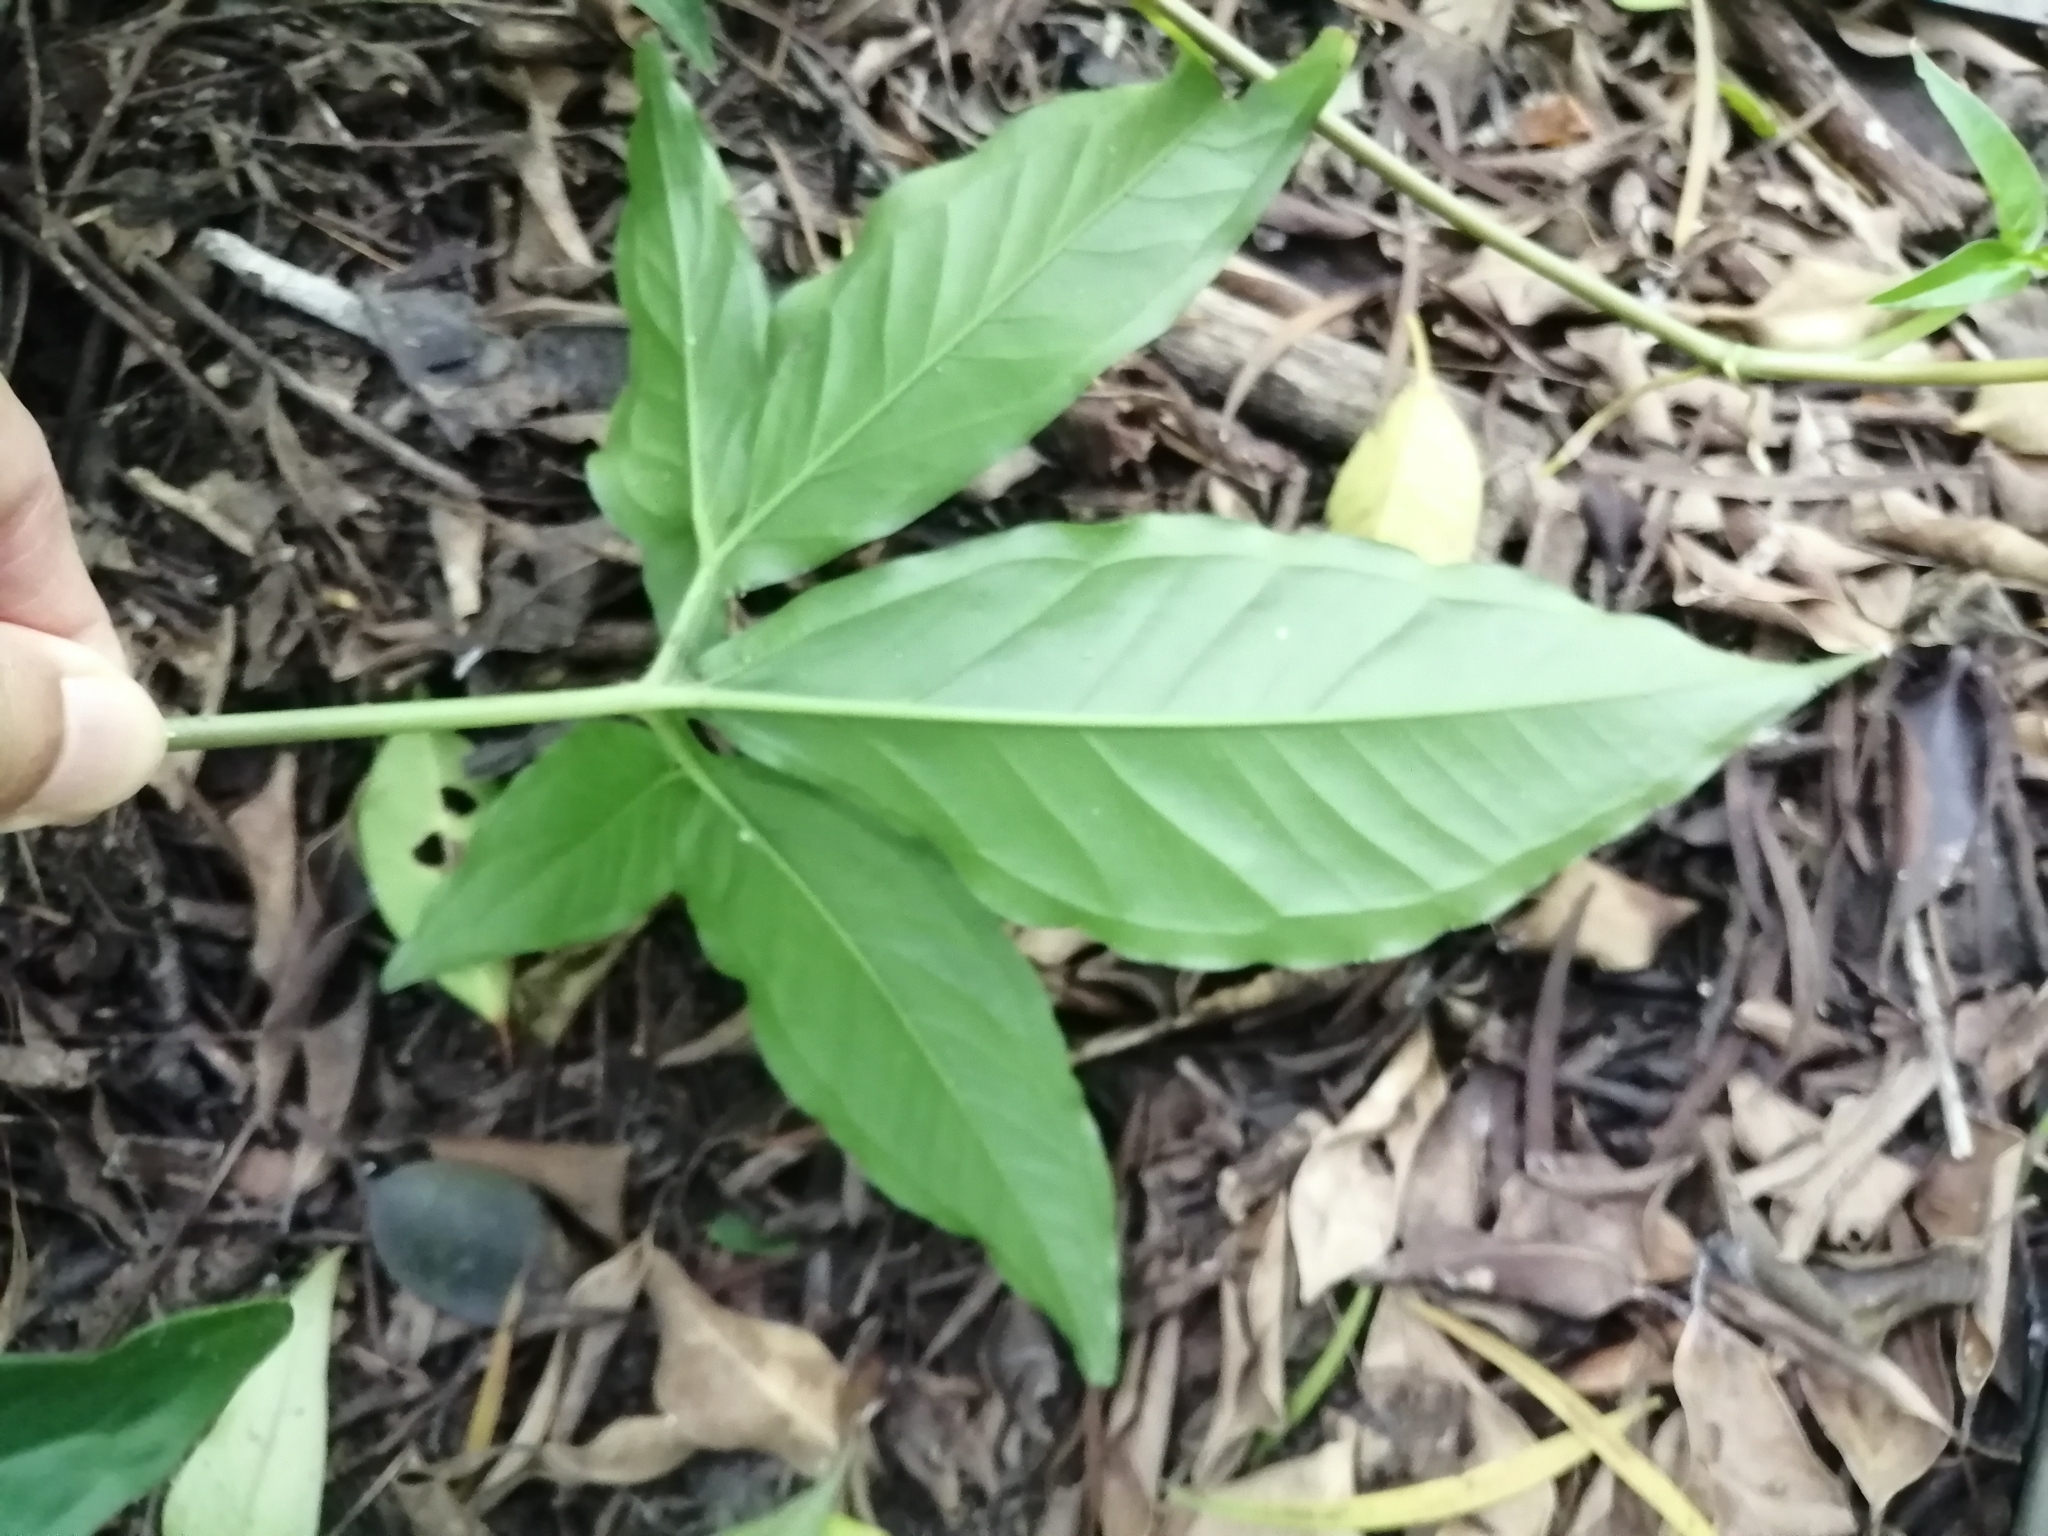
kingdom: Plantae
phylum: Tracheophyta
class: Liliopsida
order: Alismatales
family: Araceae
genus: Syngonium
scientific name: Syngonium podophyllum
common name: American evergreen
